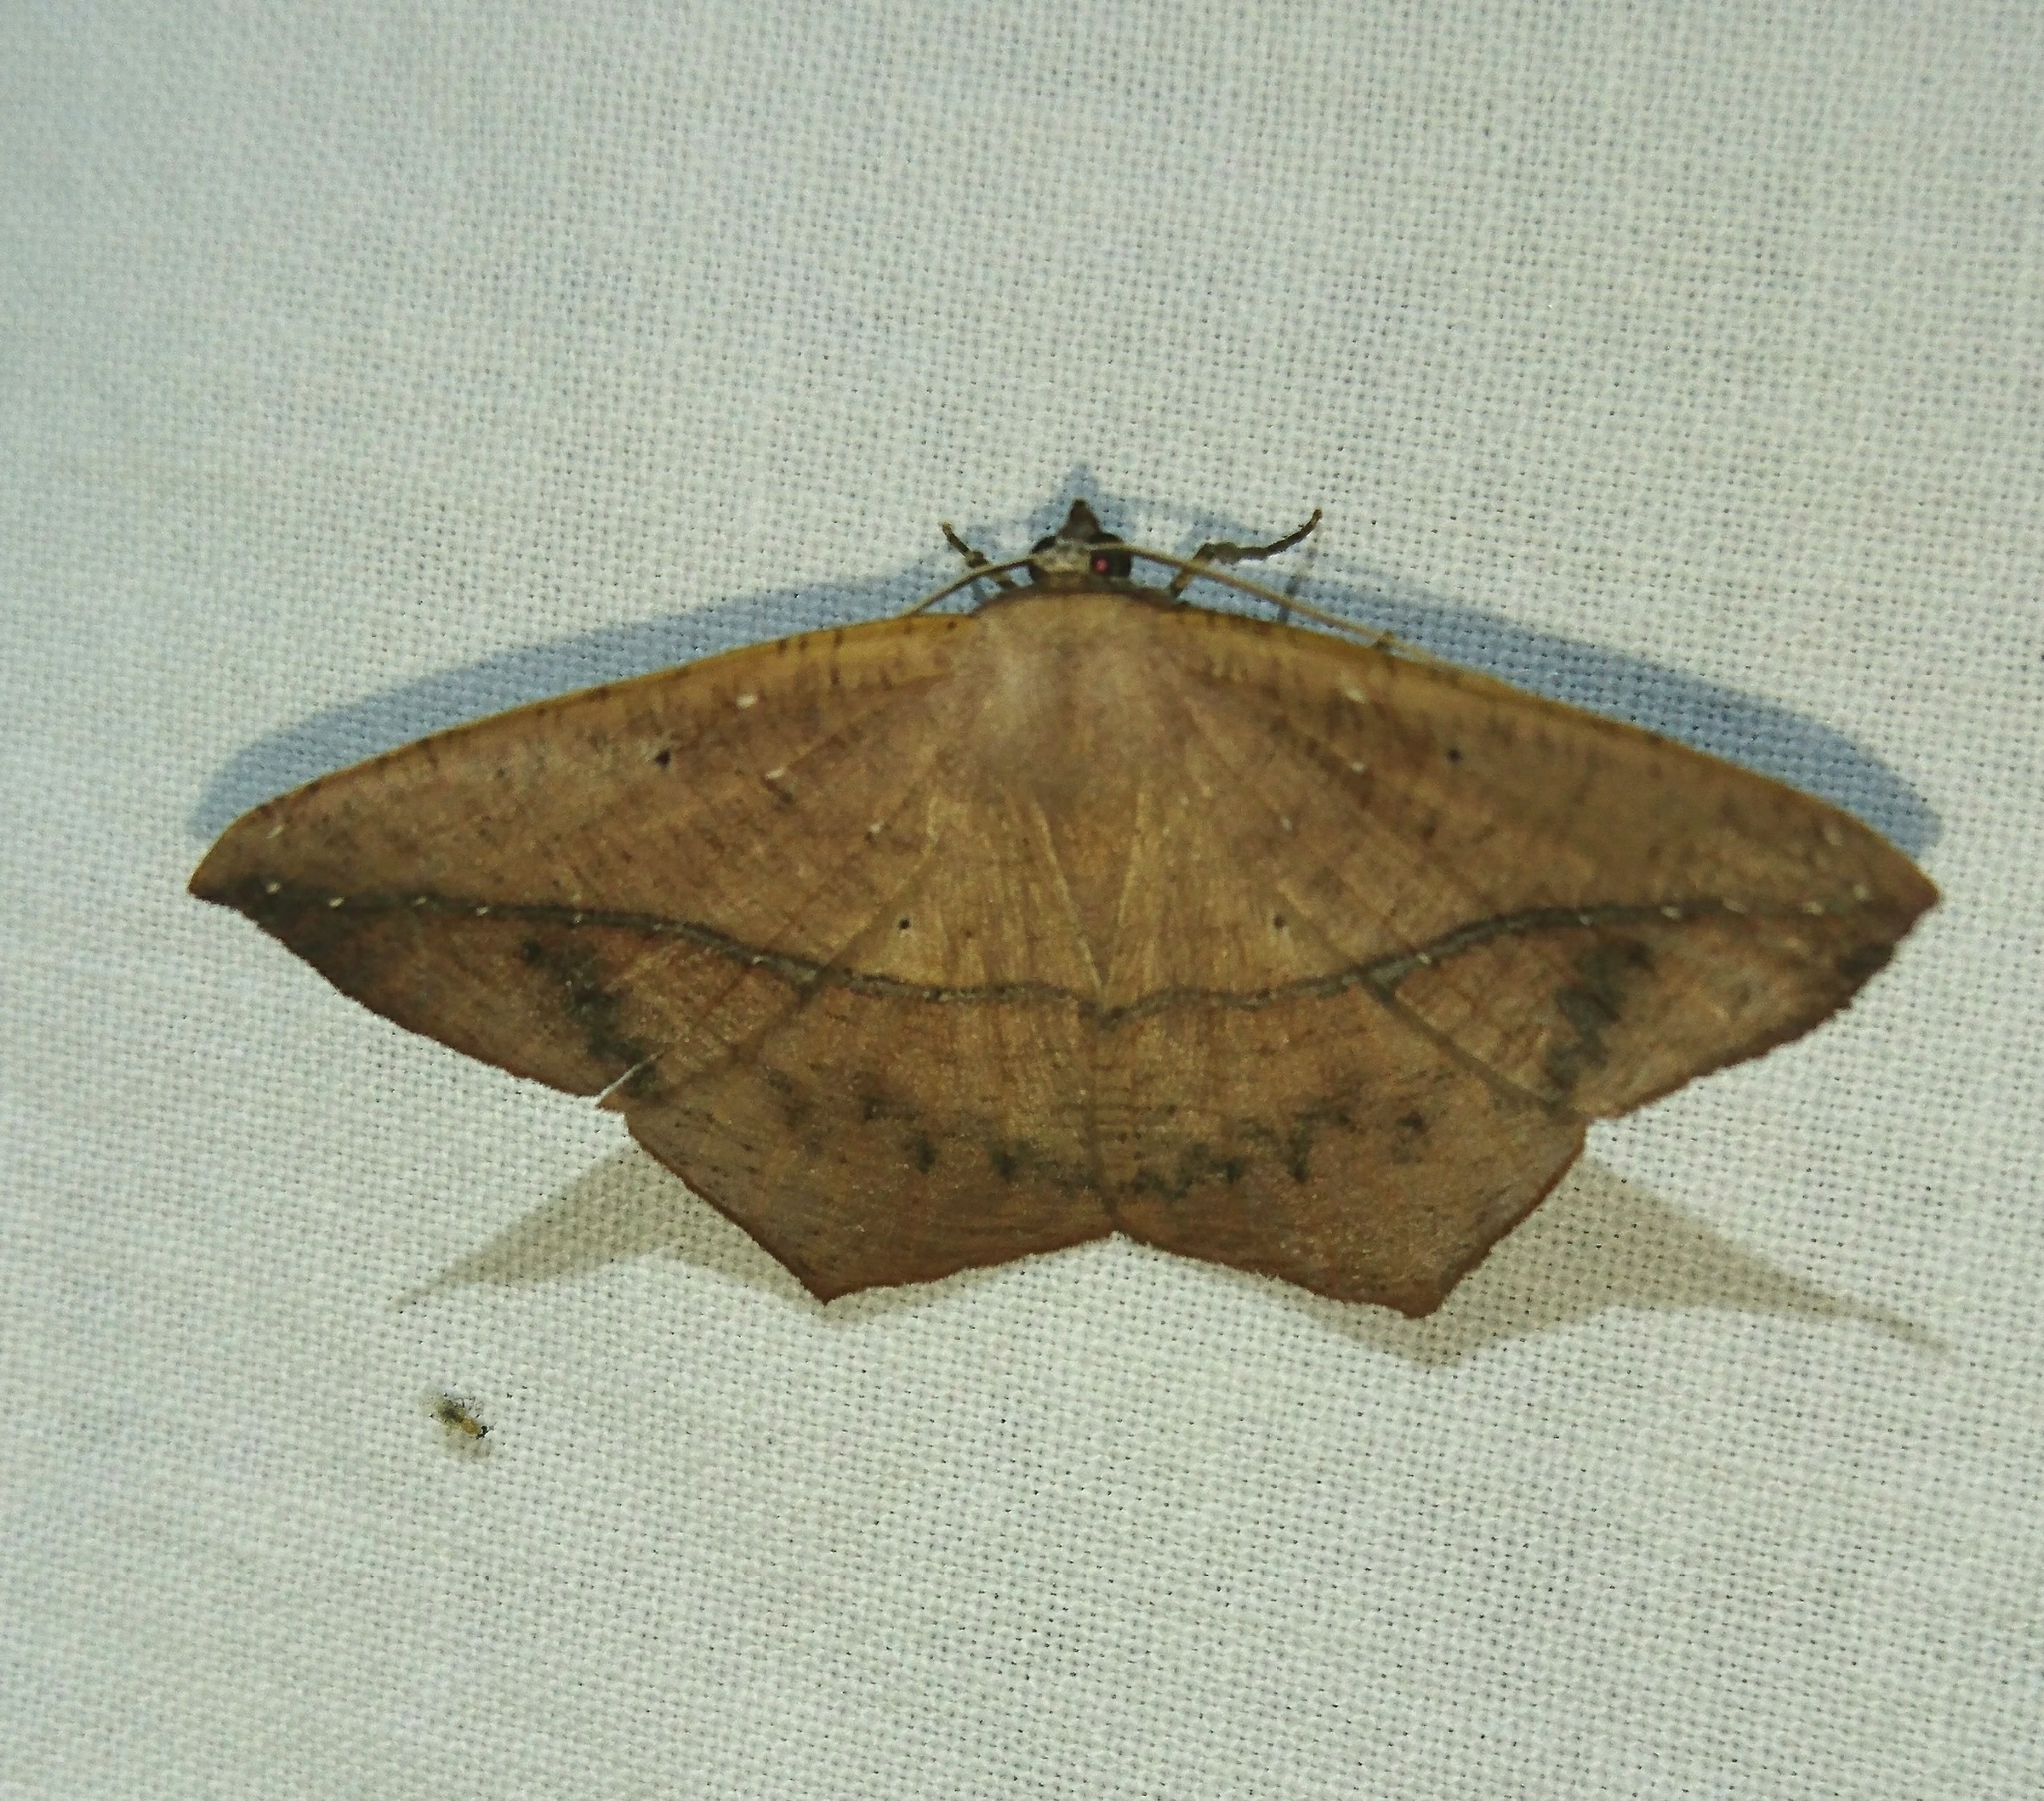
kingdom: Animalia
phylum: Arthropoda
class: Insecta
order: Lepidoptera
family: Geometridae
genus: Prochoerodes
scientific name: Prochoerodes lineola
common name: Large maple spanworm
